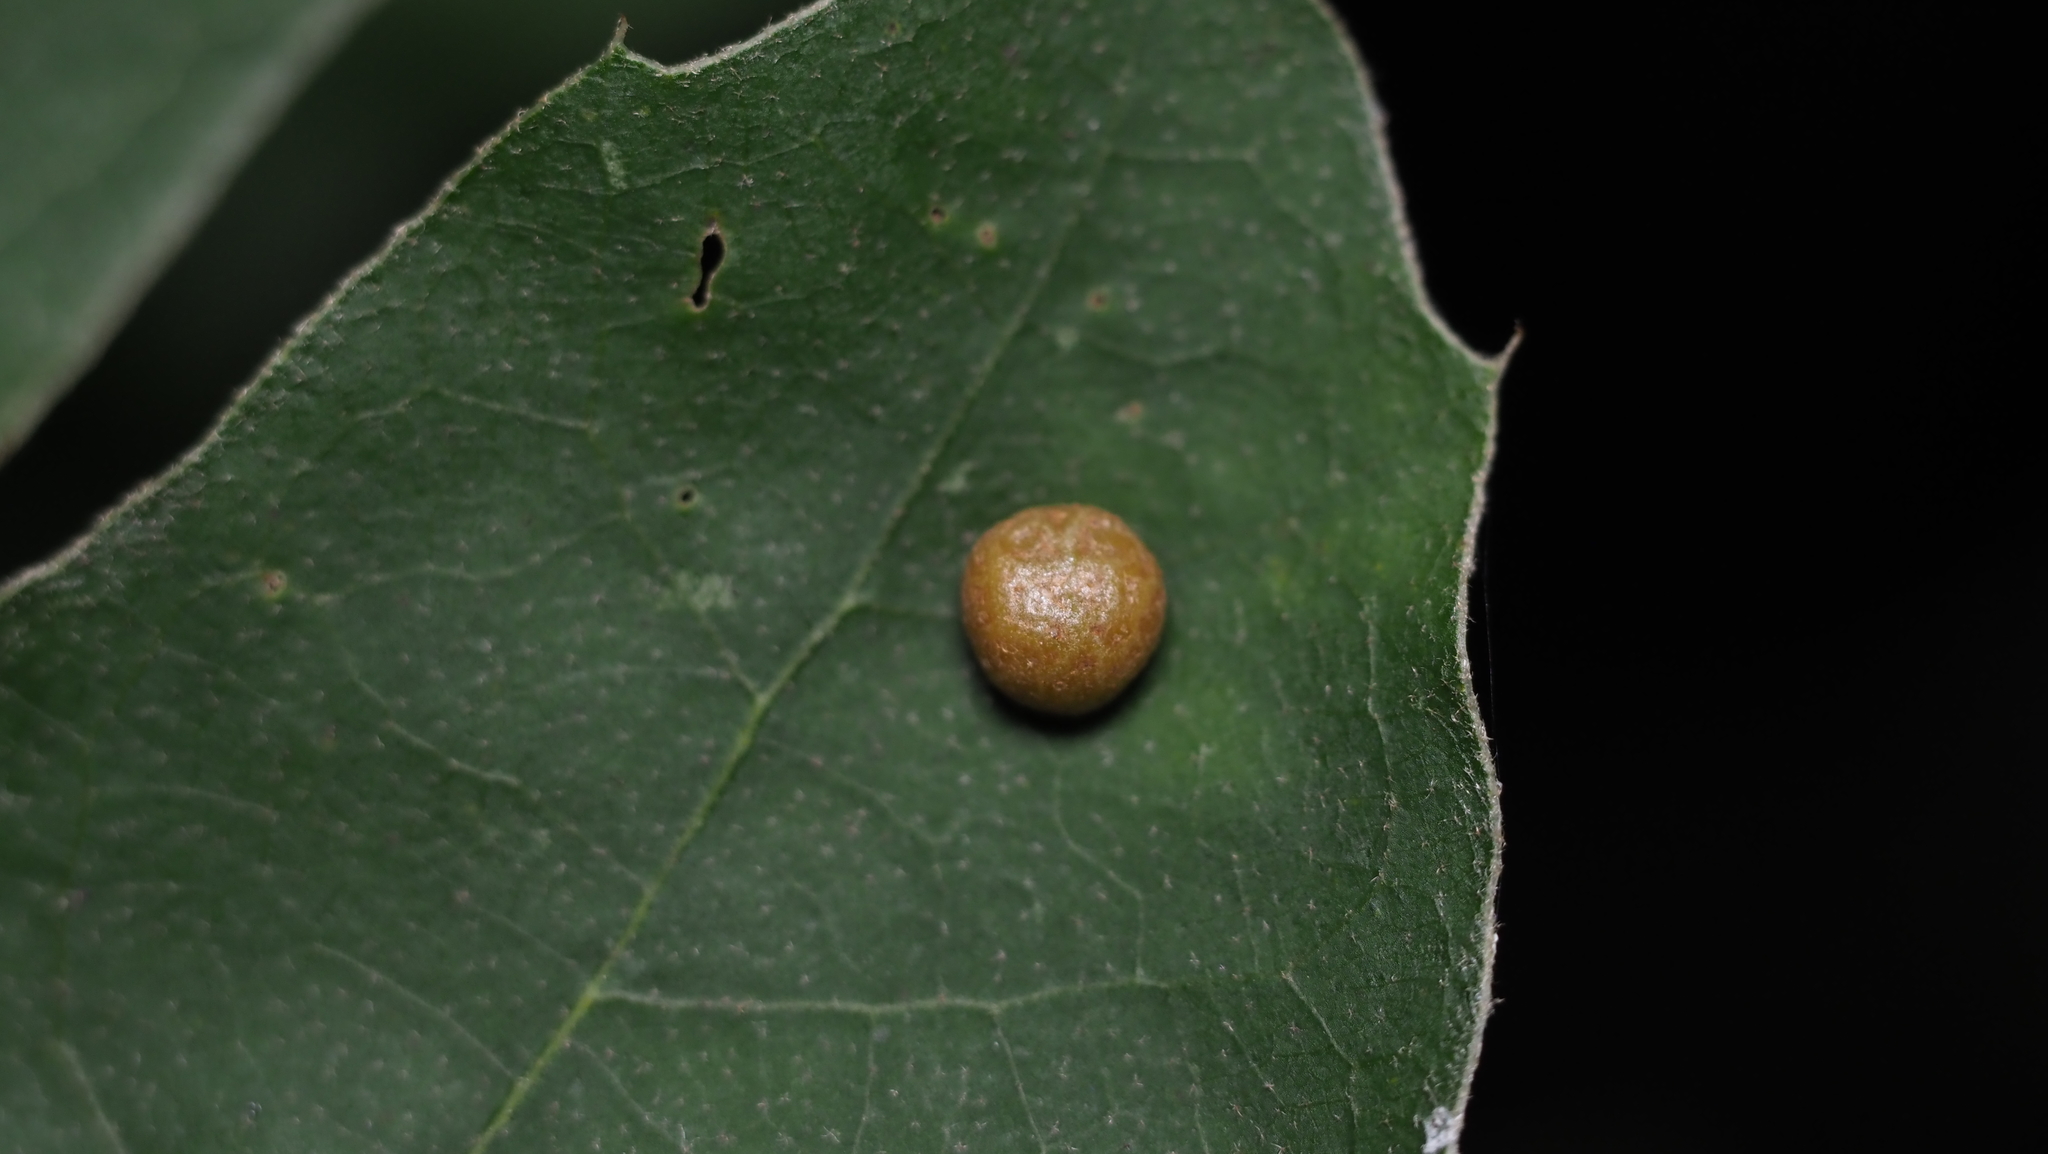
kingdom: Animalia
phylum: Arthropoda
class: Insecta
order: Diptera
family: Cecidomyiidae
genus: Polystepha
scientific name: Polystepha pilulae
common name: Oak leaf gall midge
